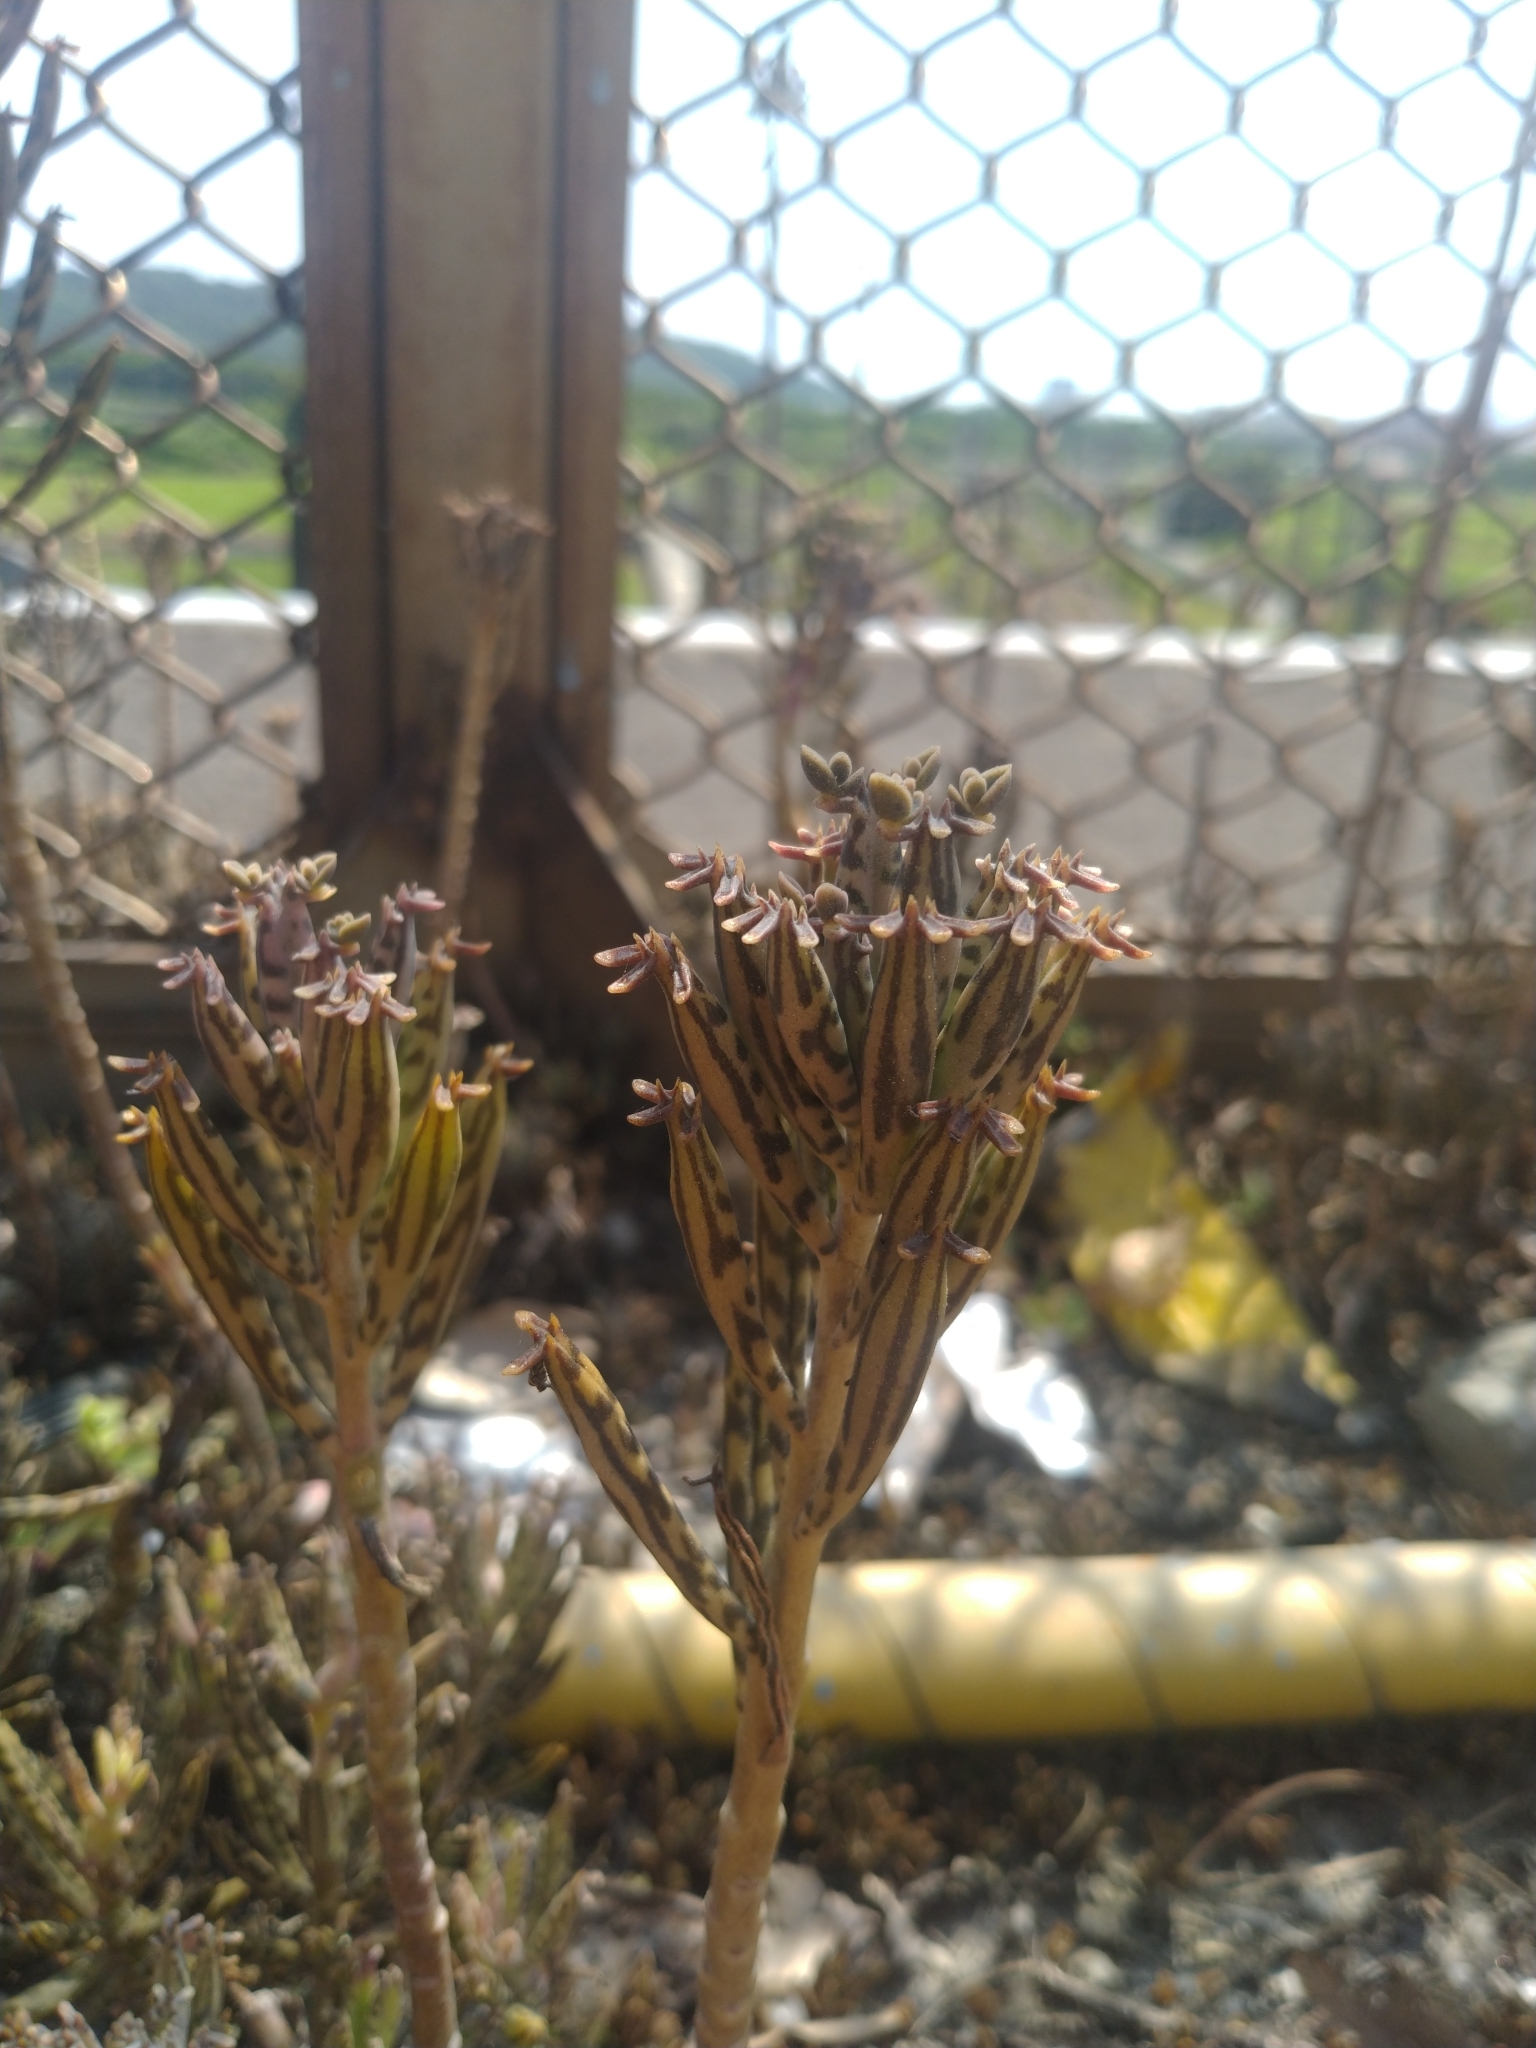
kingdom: Plantae
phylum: Tracheophyta
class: Magnoliopsida
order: Saxifragales
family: Crassulaceae
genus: Kalanchoe
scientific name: Kalanchoe delagoensis
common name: Chandelier plant
